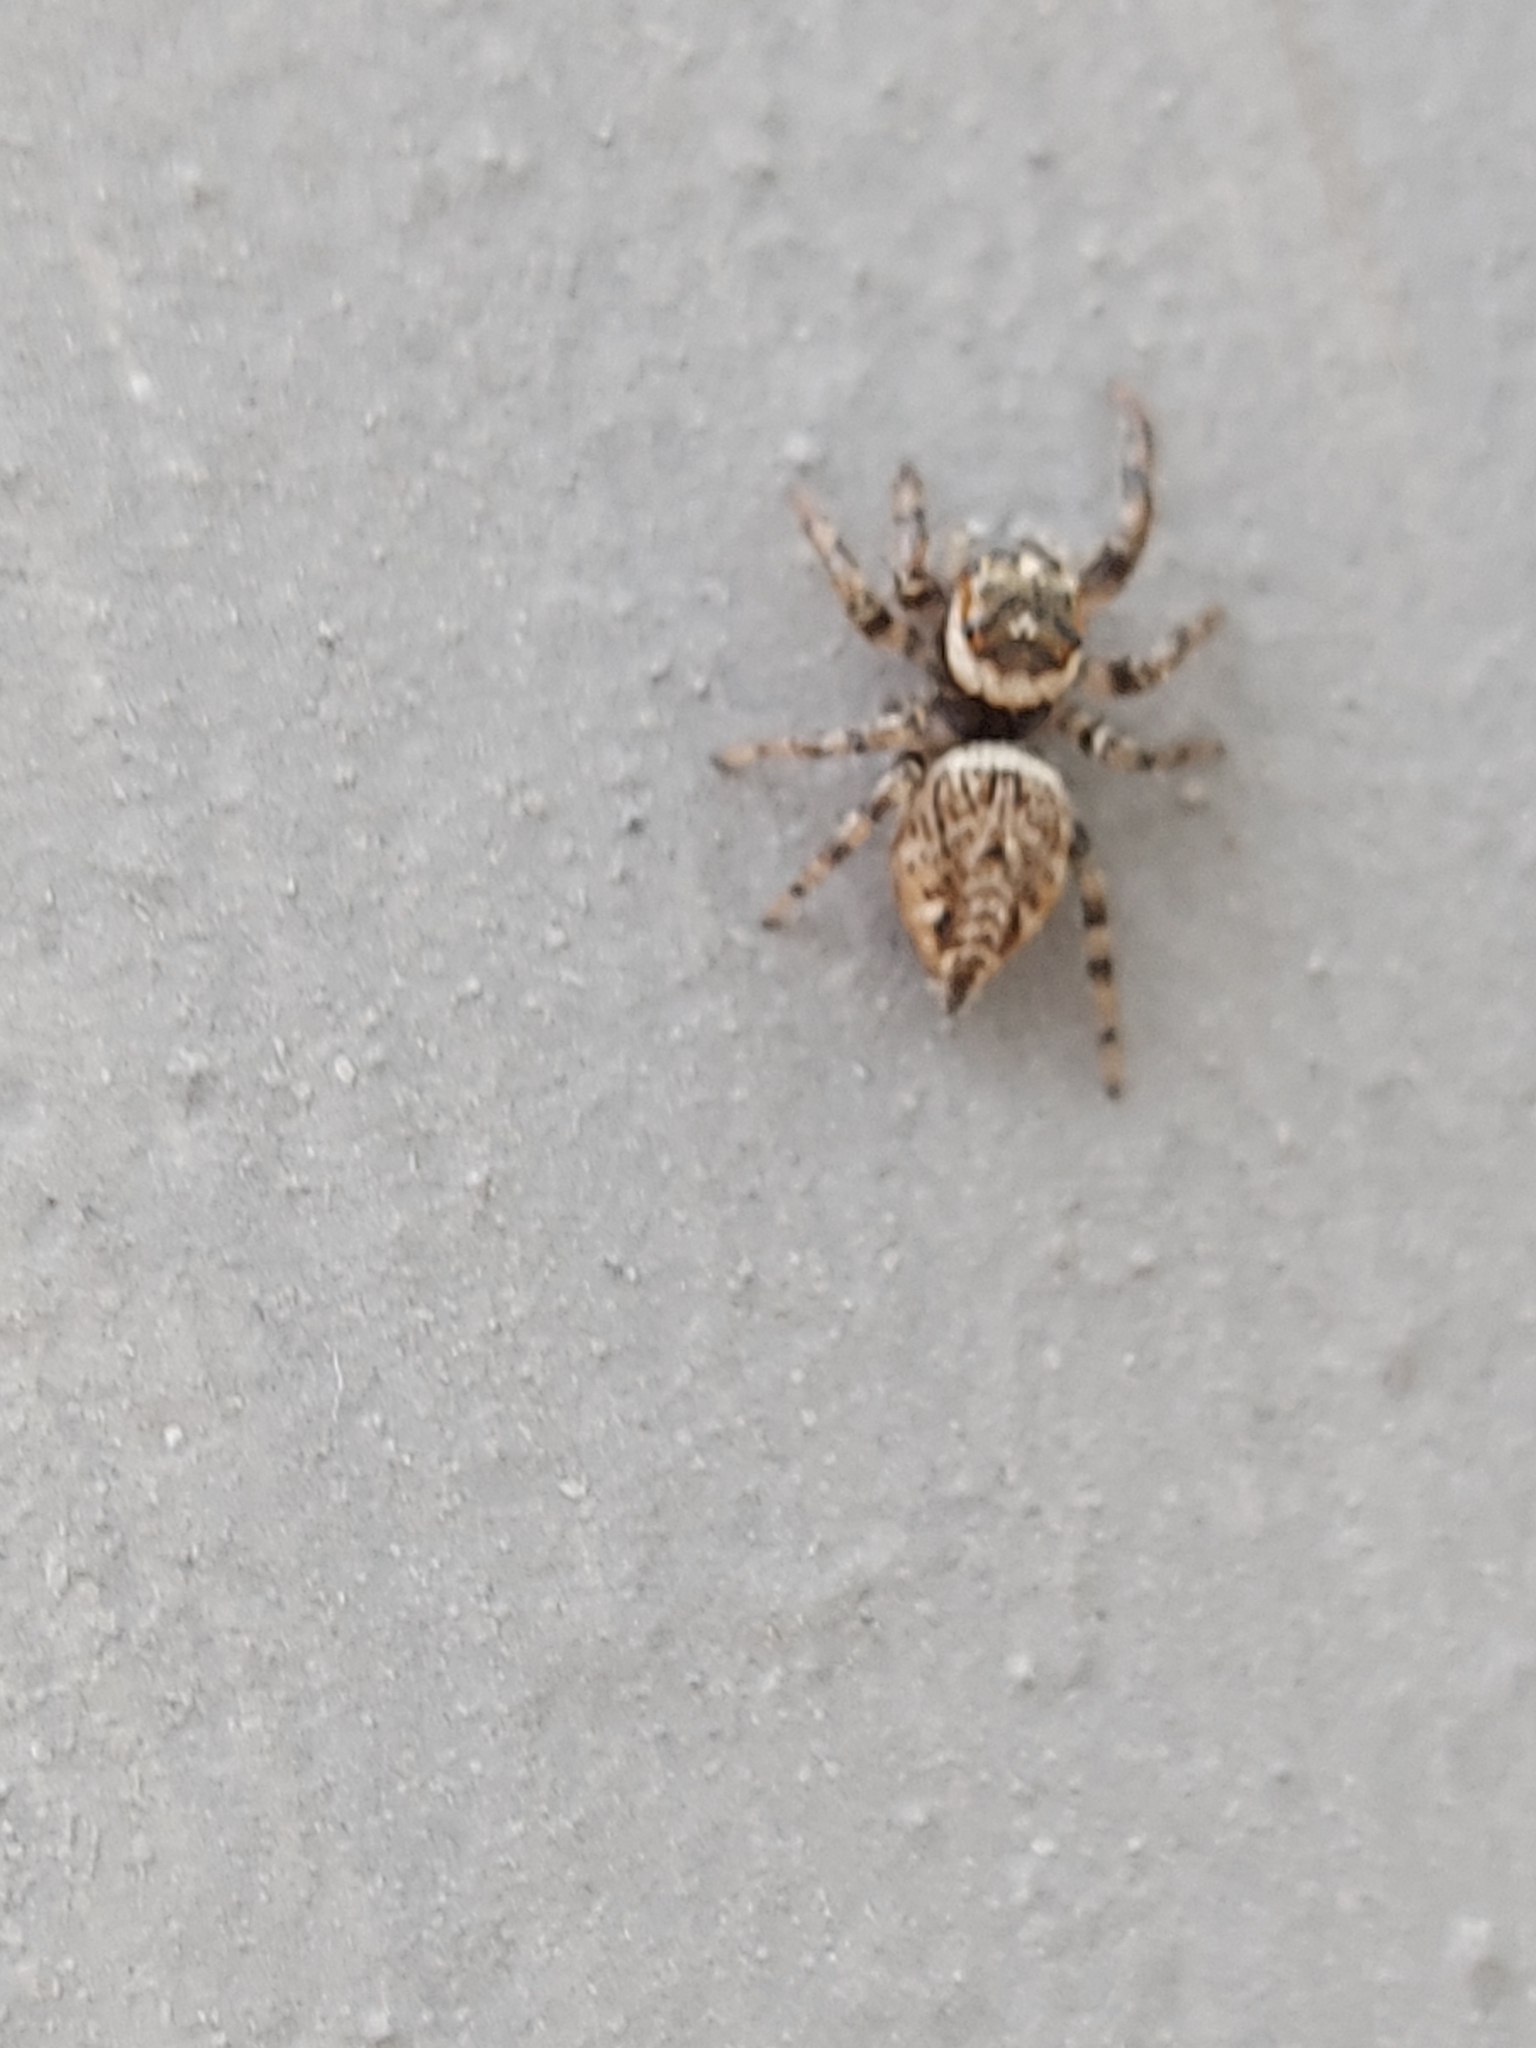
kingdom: Animalia
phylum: Arthropoda
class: Arachnida
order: Araneae
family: Salticidae
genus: Evarcha
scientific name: Evarcha jucunda
